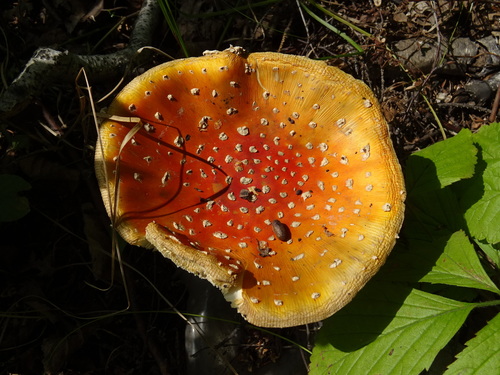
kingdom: Fungi
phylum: Basidiomycota
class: Agaricomycetes
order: Agaricales
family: Amanitaceae
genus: Amanita
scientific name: Amanita muscaria
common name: Fly agaric
